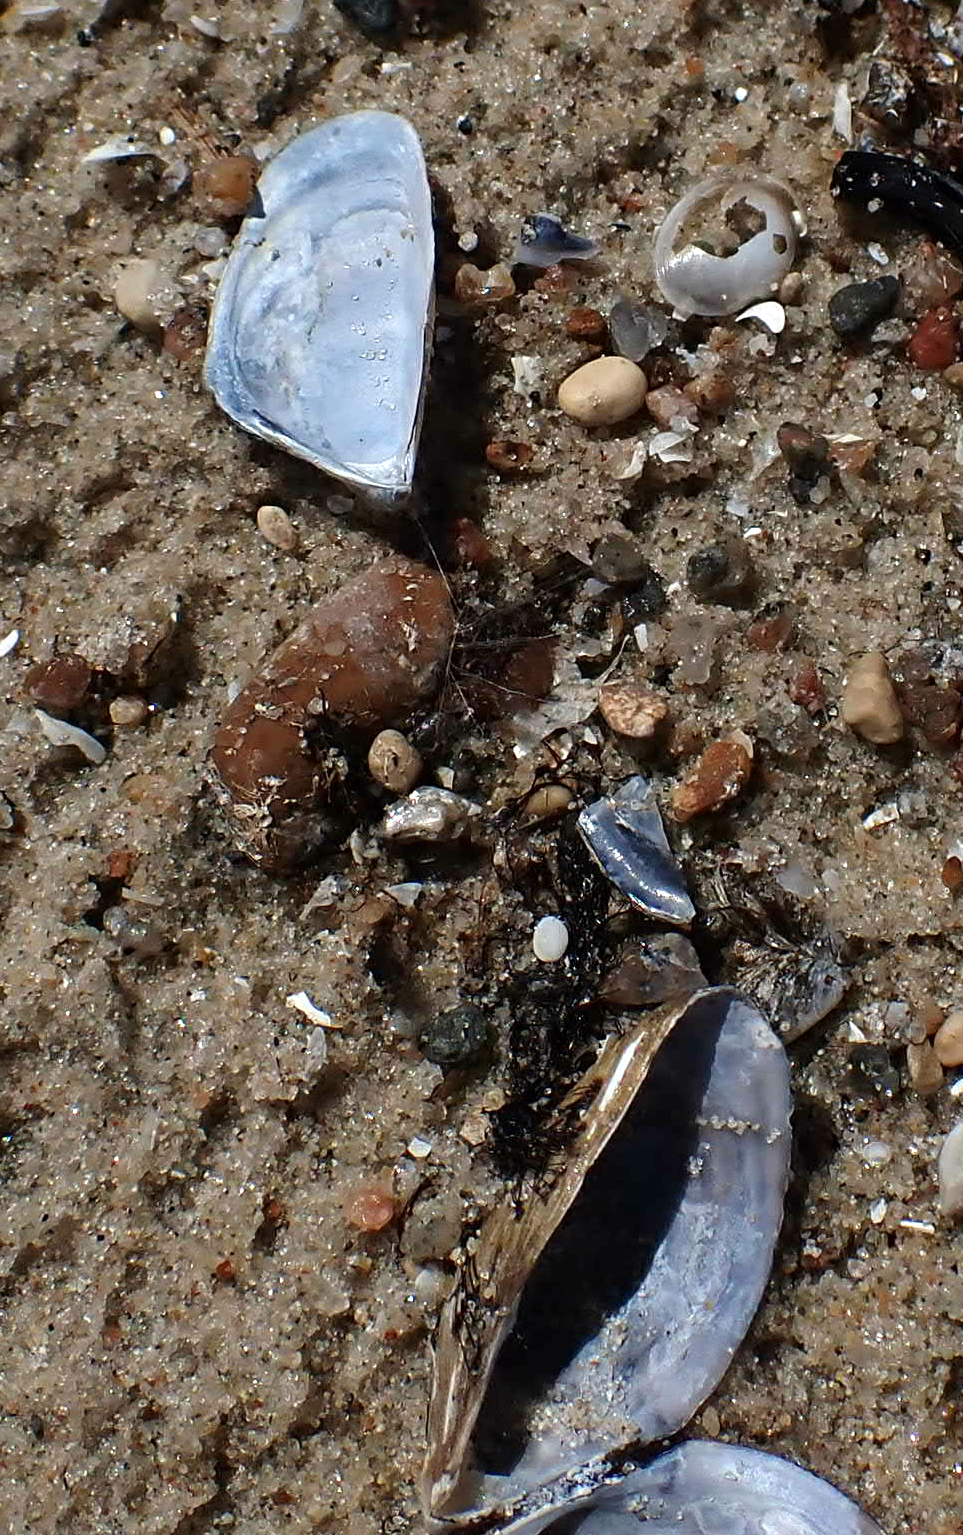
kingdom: Animalia
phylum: Mollusca
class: Bivalvia
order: Myida
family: Dreissenidae
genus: Dreissena
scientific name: Dreissena polymorpha
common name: Zebra mussel
